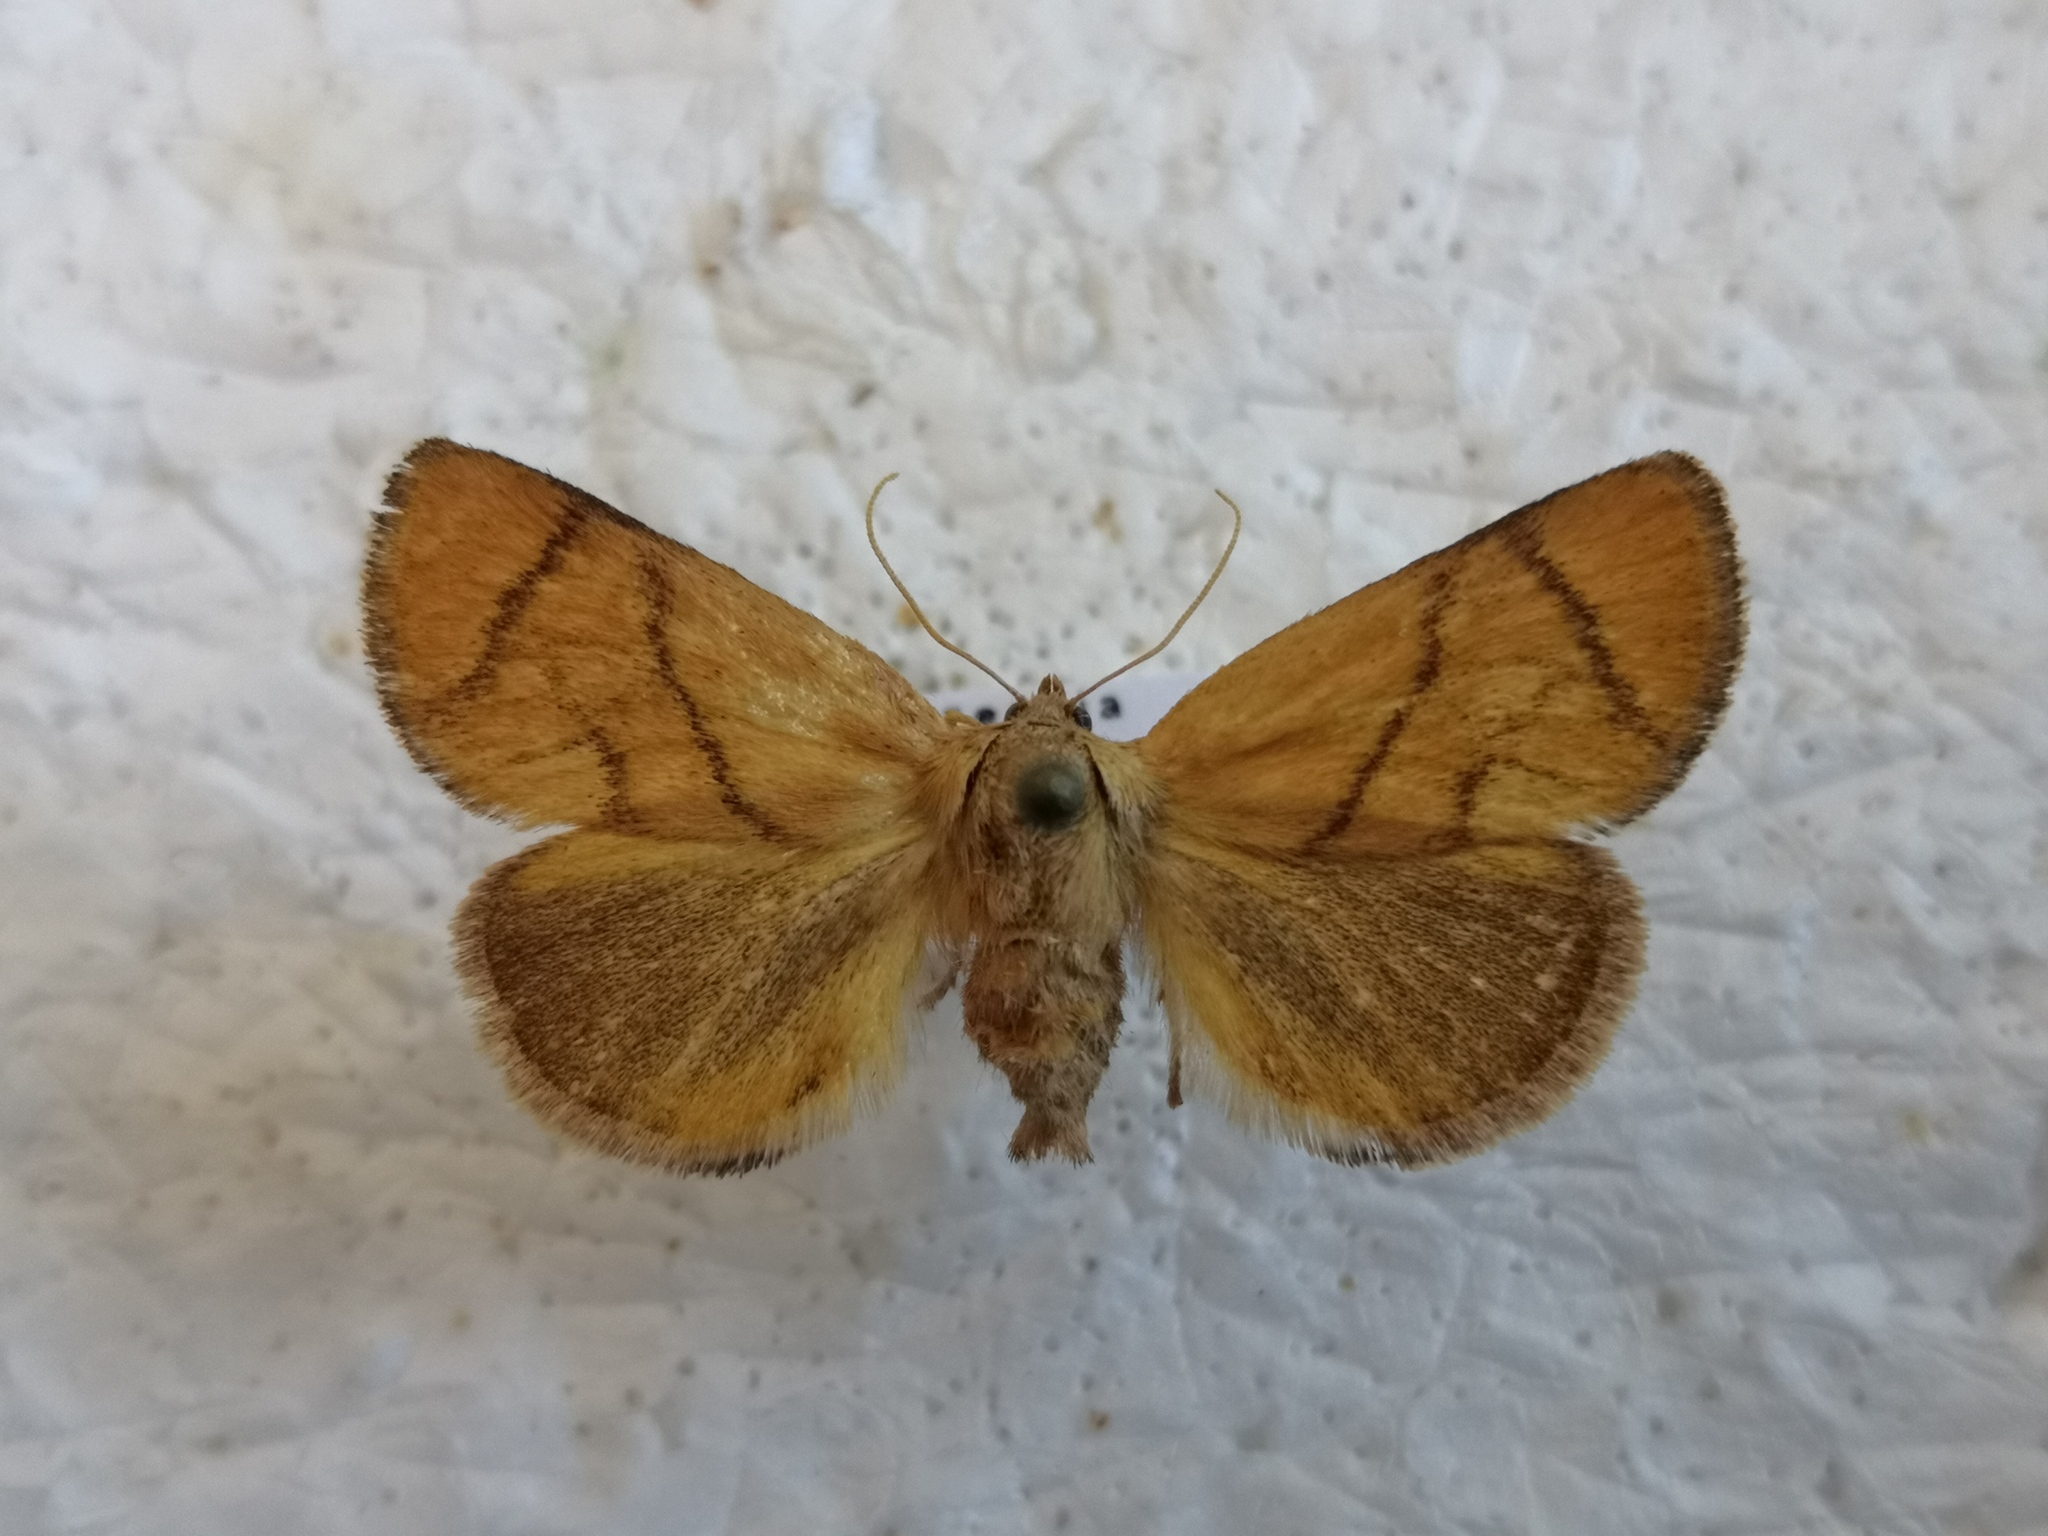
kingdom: Animalia
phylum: Arthropoda
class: Insecta
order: Lepidoptera
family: Limacodidae
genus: Apoda
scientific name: Apoda limacodes
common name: Festoon
